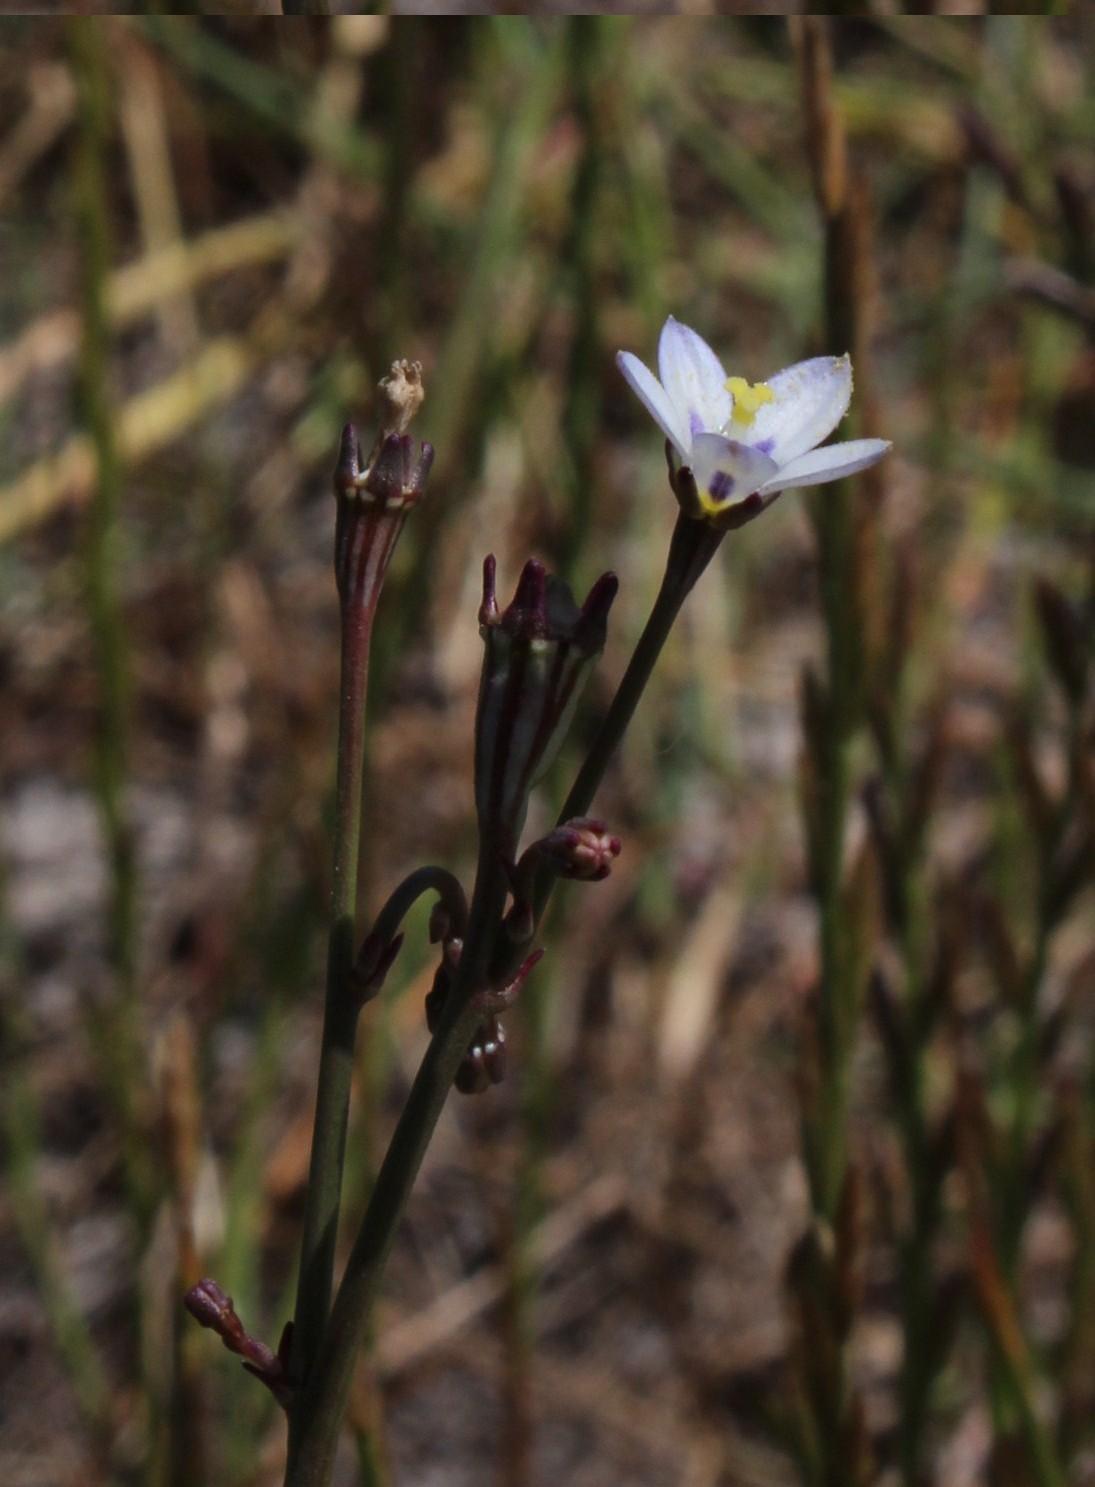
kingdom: Plantae
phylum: Tracheophyta
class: Magnoliopsida
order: Asterales
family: Campanulaceae
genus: Wahlenbergia
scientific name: Wahlenbergia androsacea
